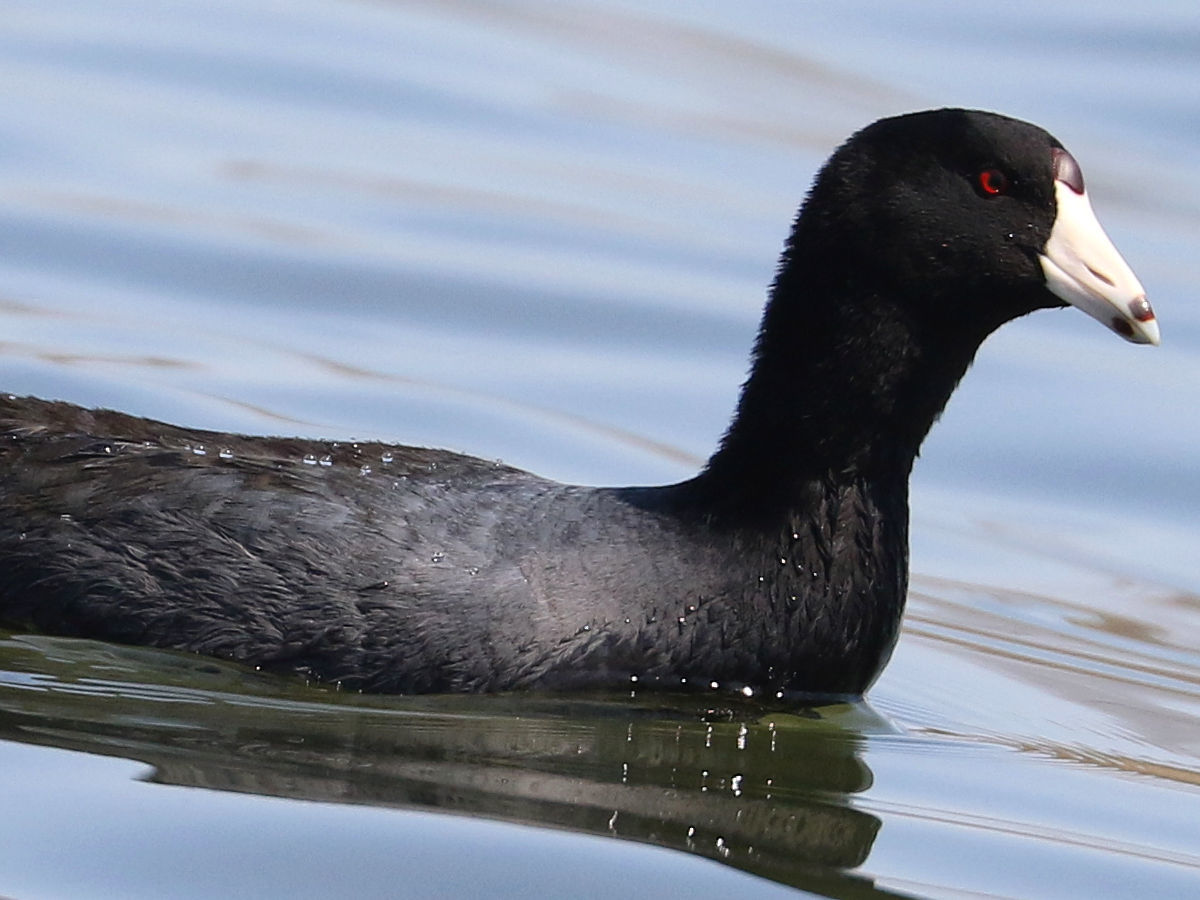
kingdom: Animalia
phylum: Chordata
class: Aves
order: Gruiformes
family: Rallidae
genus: Fulica
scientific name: Fulica americana
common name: American coot
